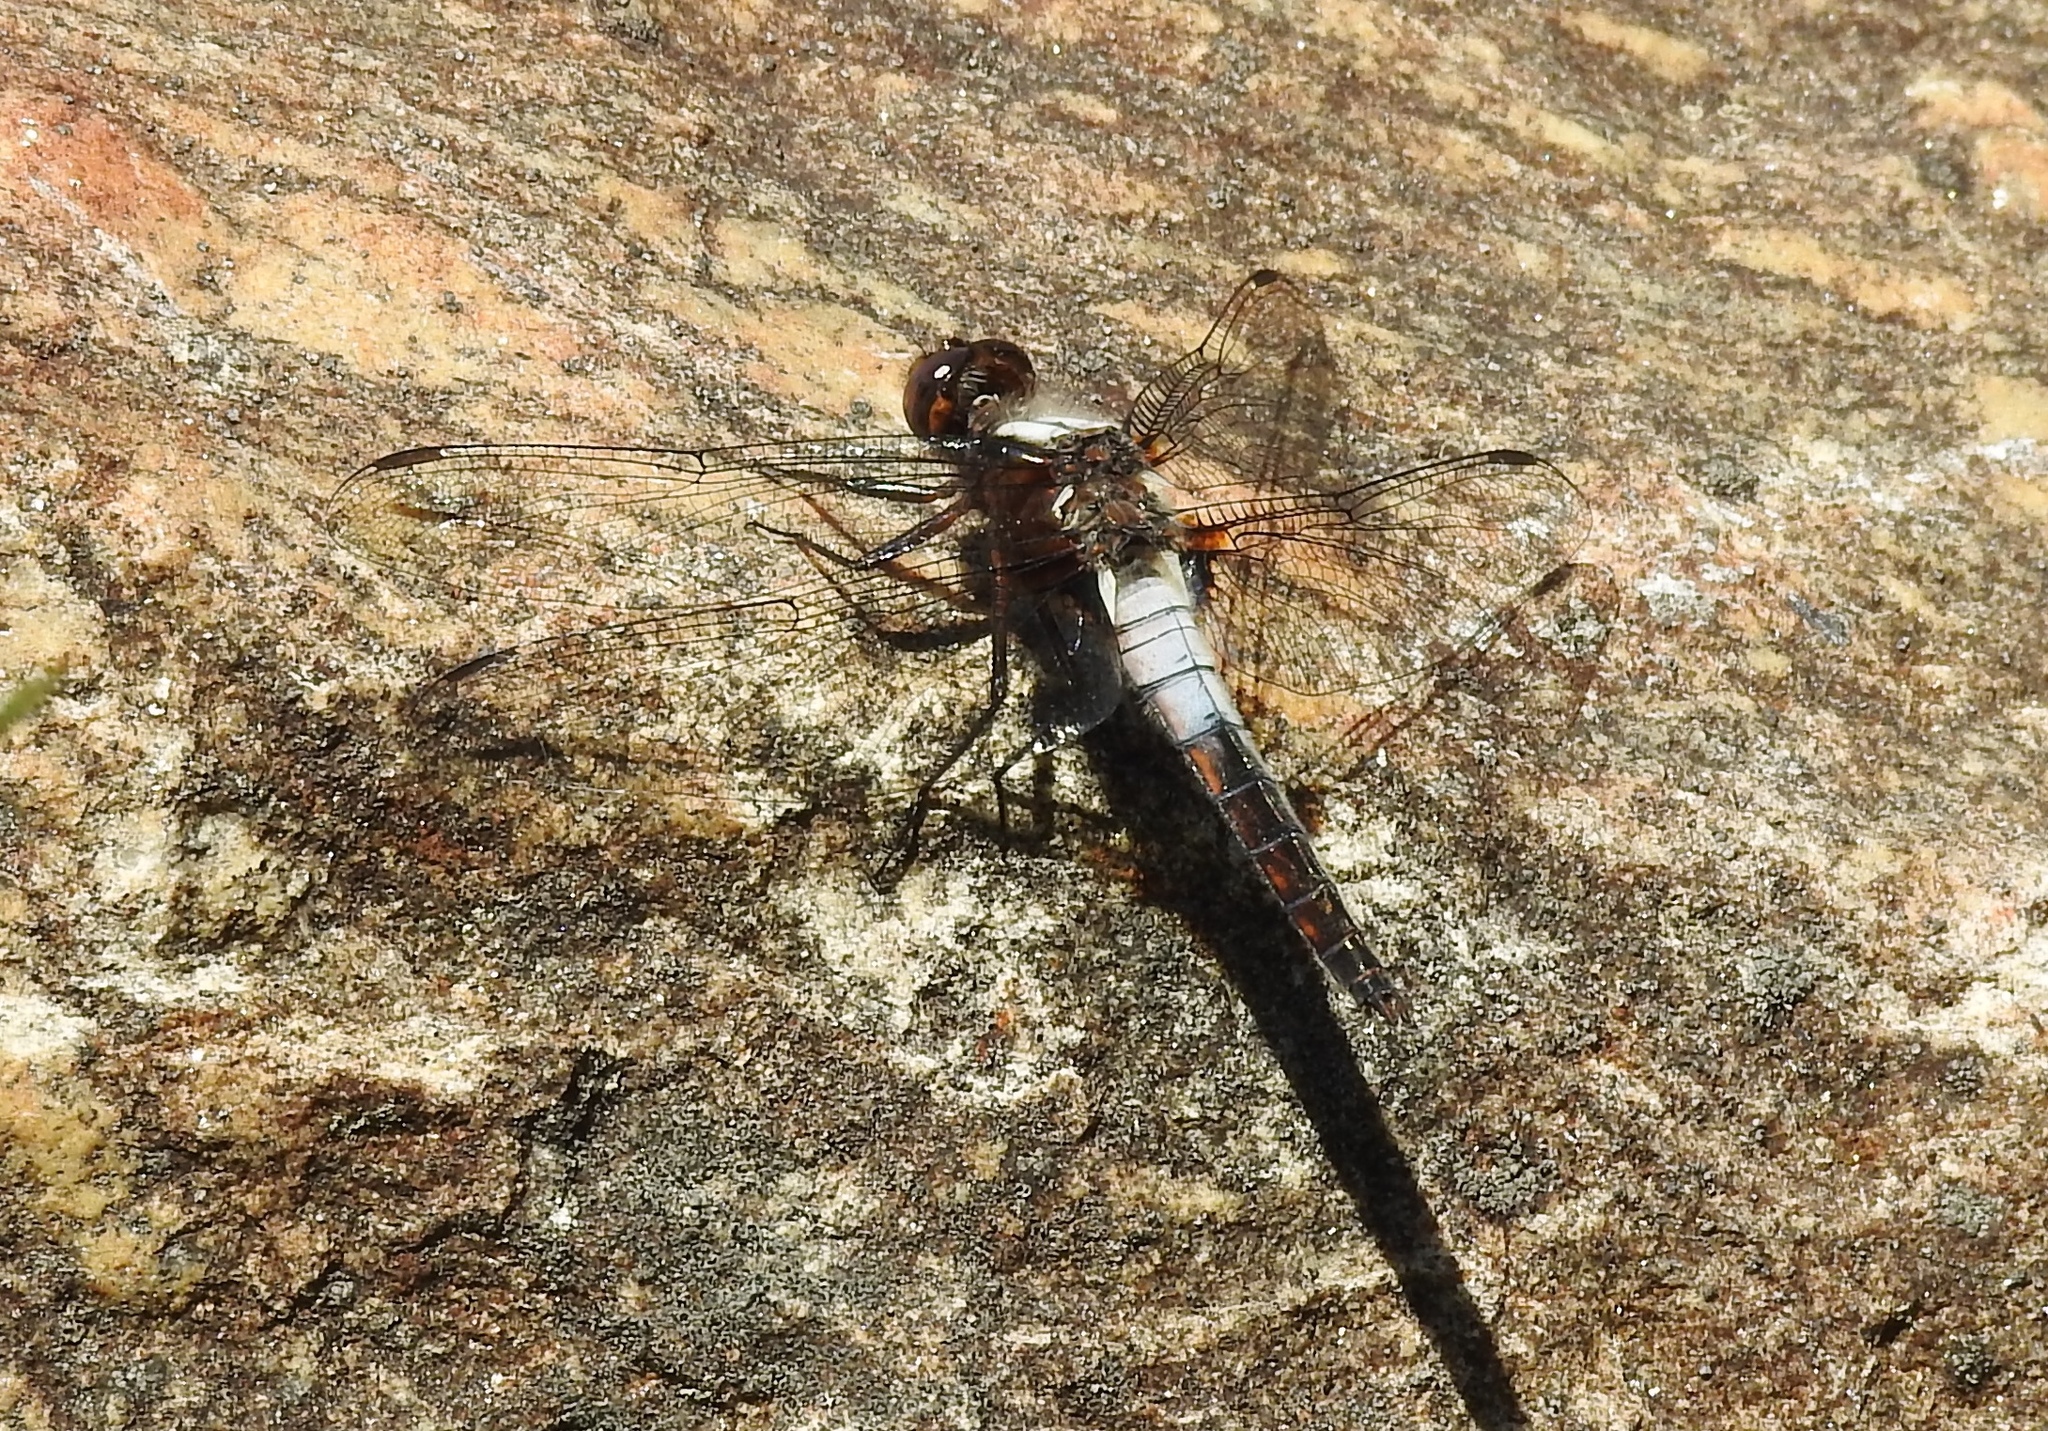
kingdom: Animalia
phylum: Arthropoda
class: Insecta
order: Odonata
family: Libellulidae
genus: Ladona
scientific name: Ladona julia
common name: Chalk-fronted corporal
